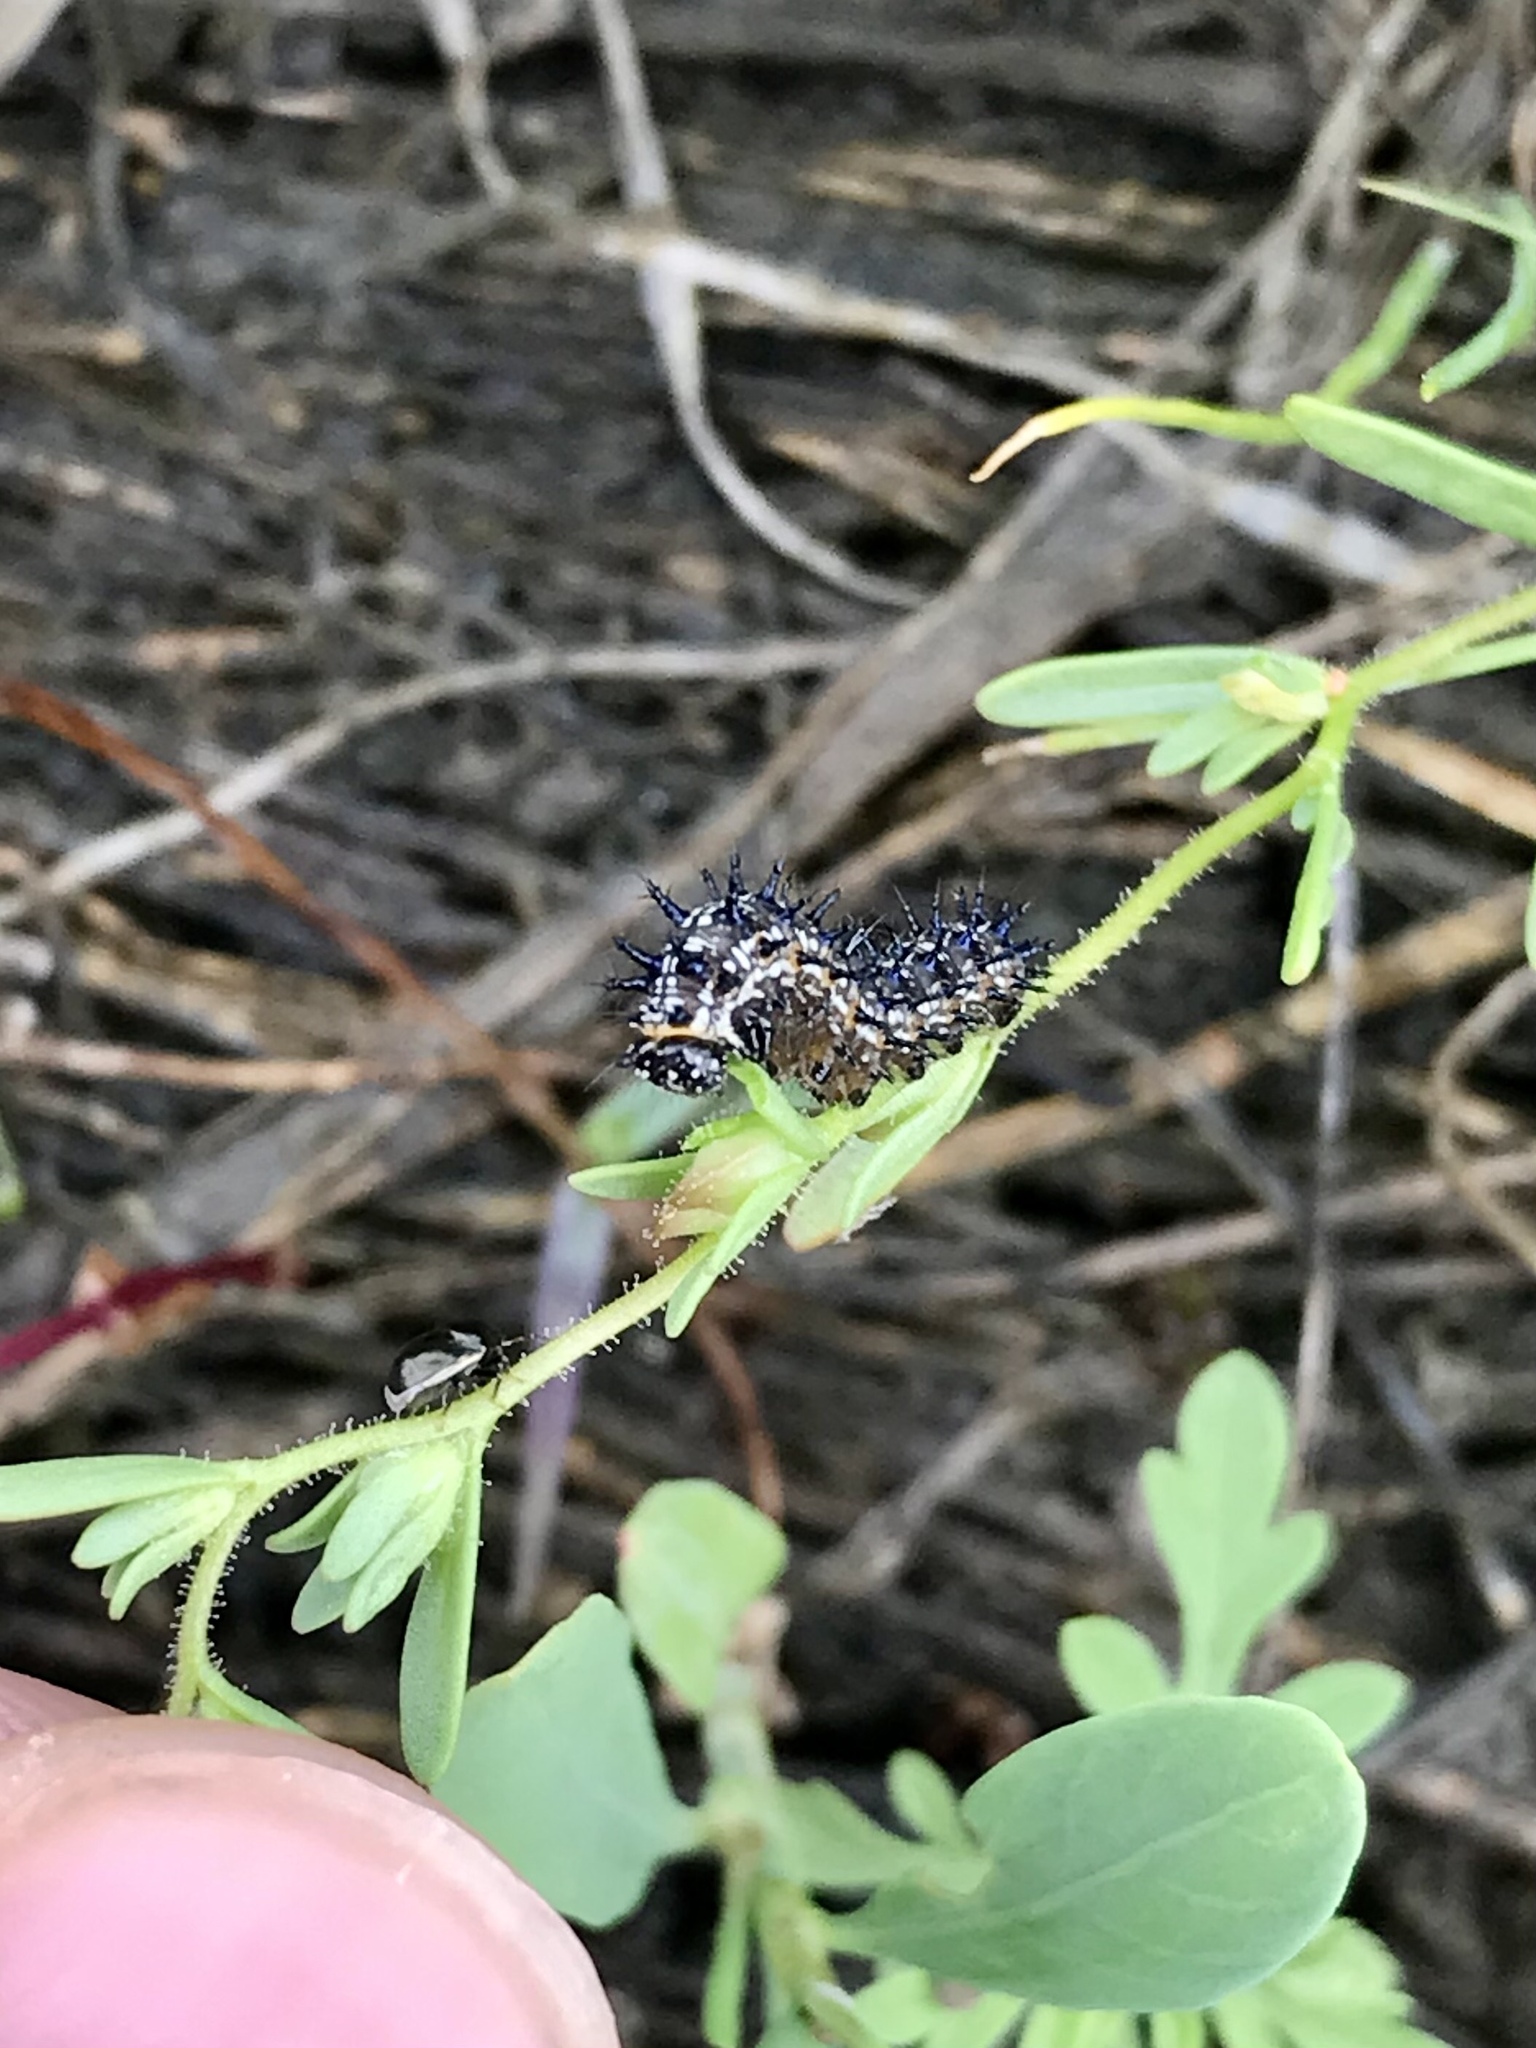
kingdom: Animalia
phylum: Arthropoda
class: Insecta
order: Lepidoptera
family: Nymphalidae
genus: Junonia
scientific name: Junonia coenia
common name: Common buckeye
